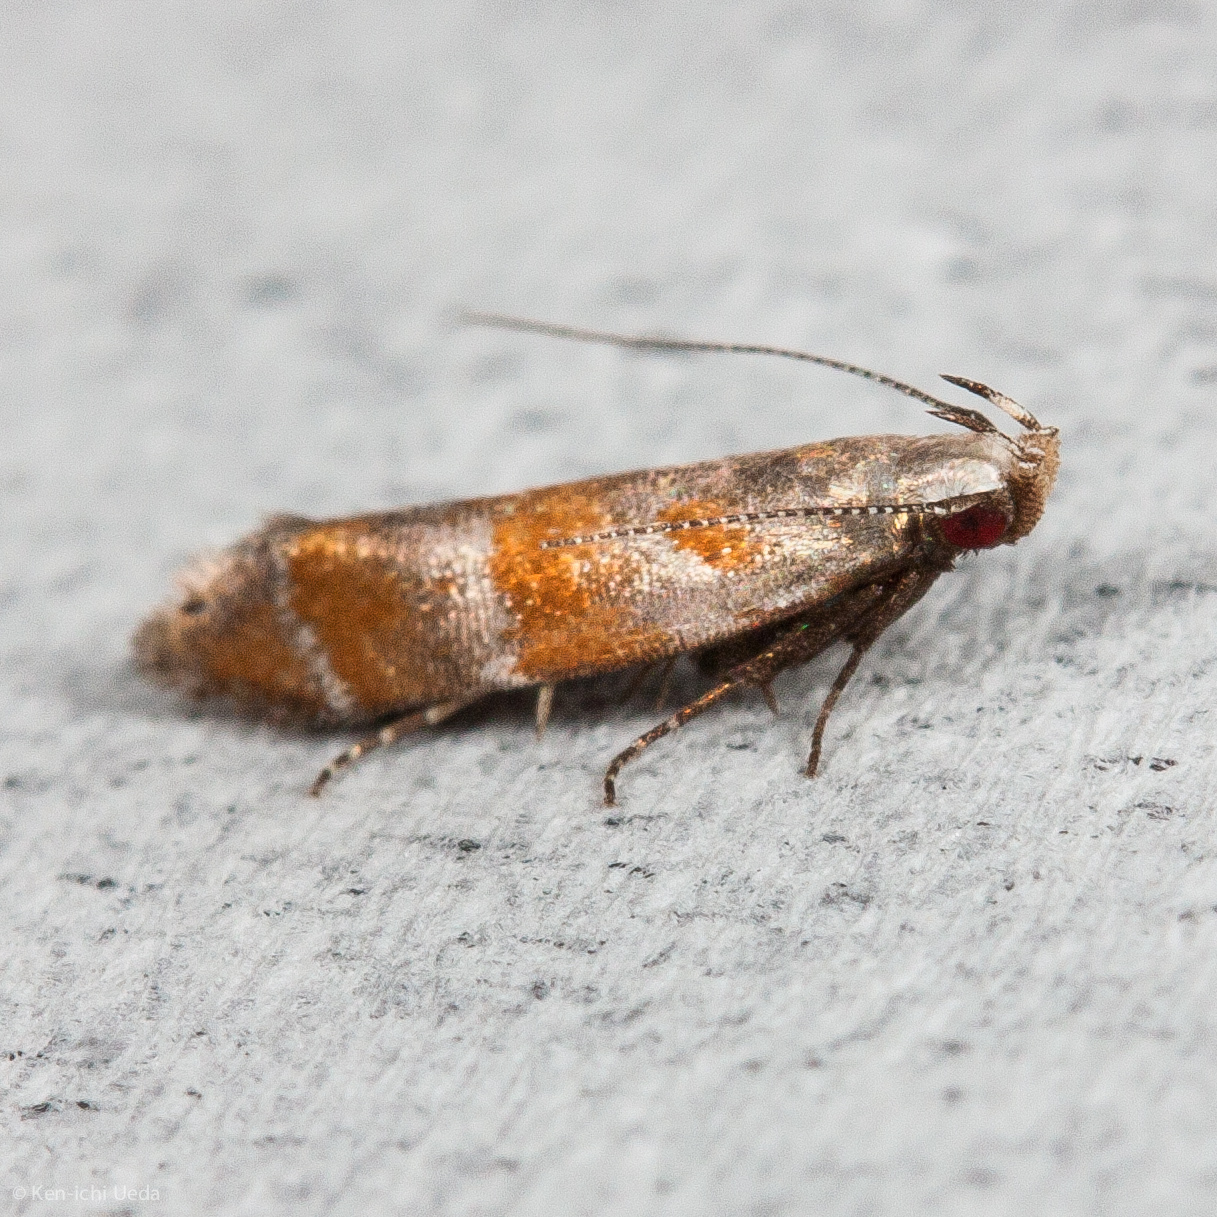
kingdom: Animalia
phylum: Arthropoda
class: Insecta
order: Lepidoptera
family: Gelechiidae
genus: Battaristis
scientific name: Battaristis vittella
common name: Orange stripe-backed moth
